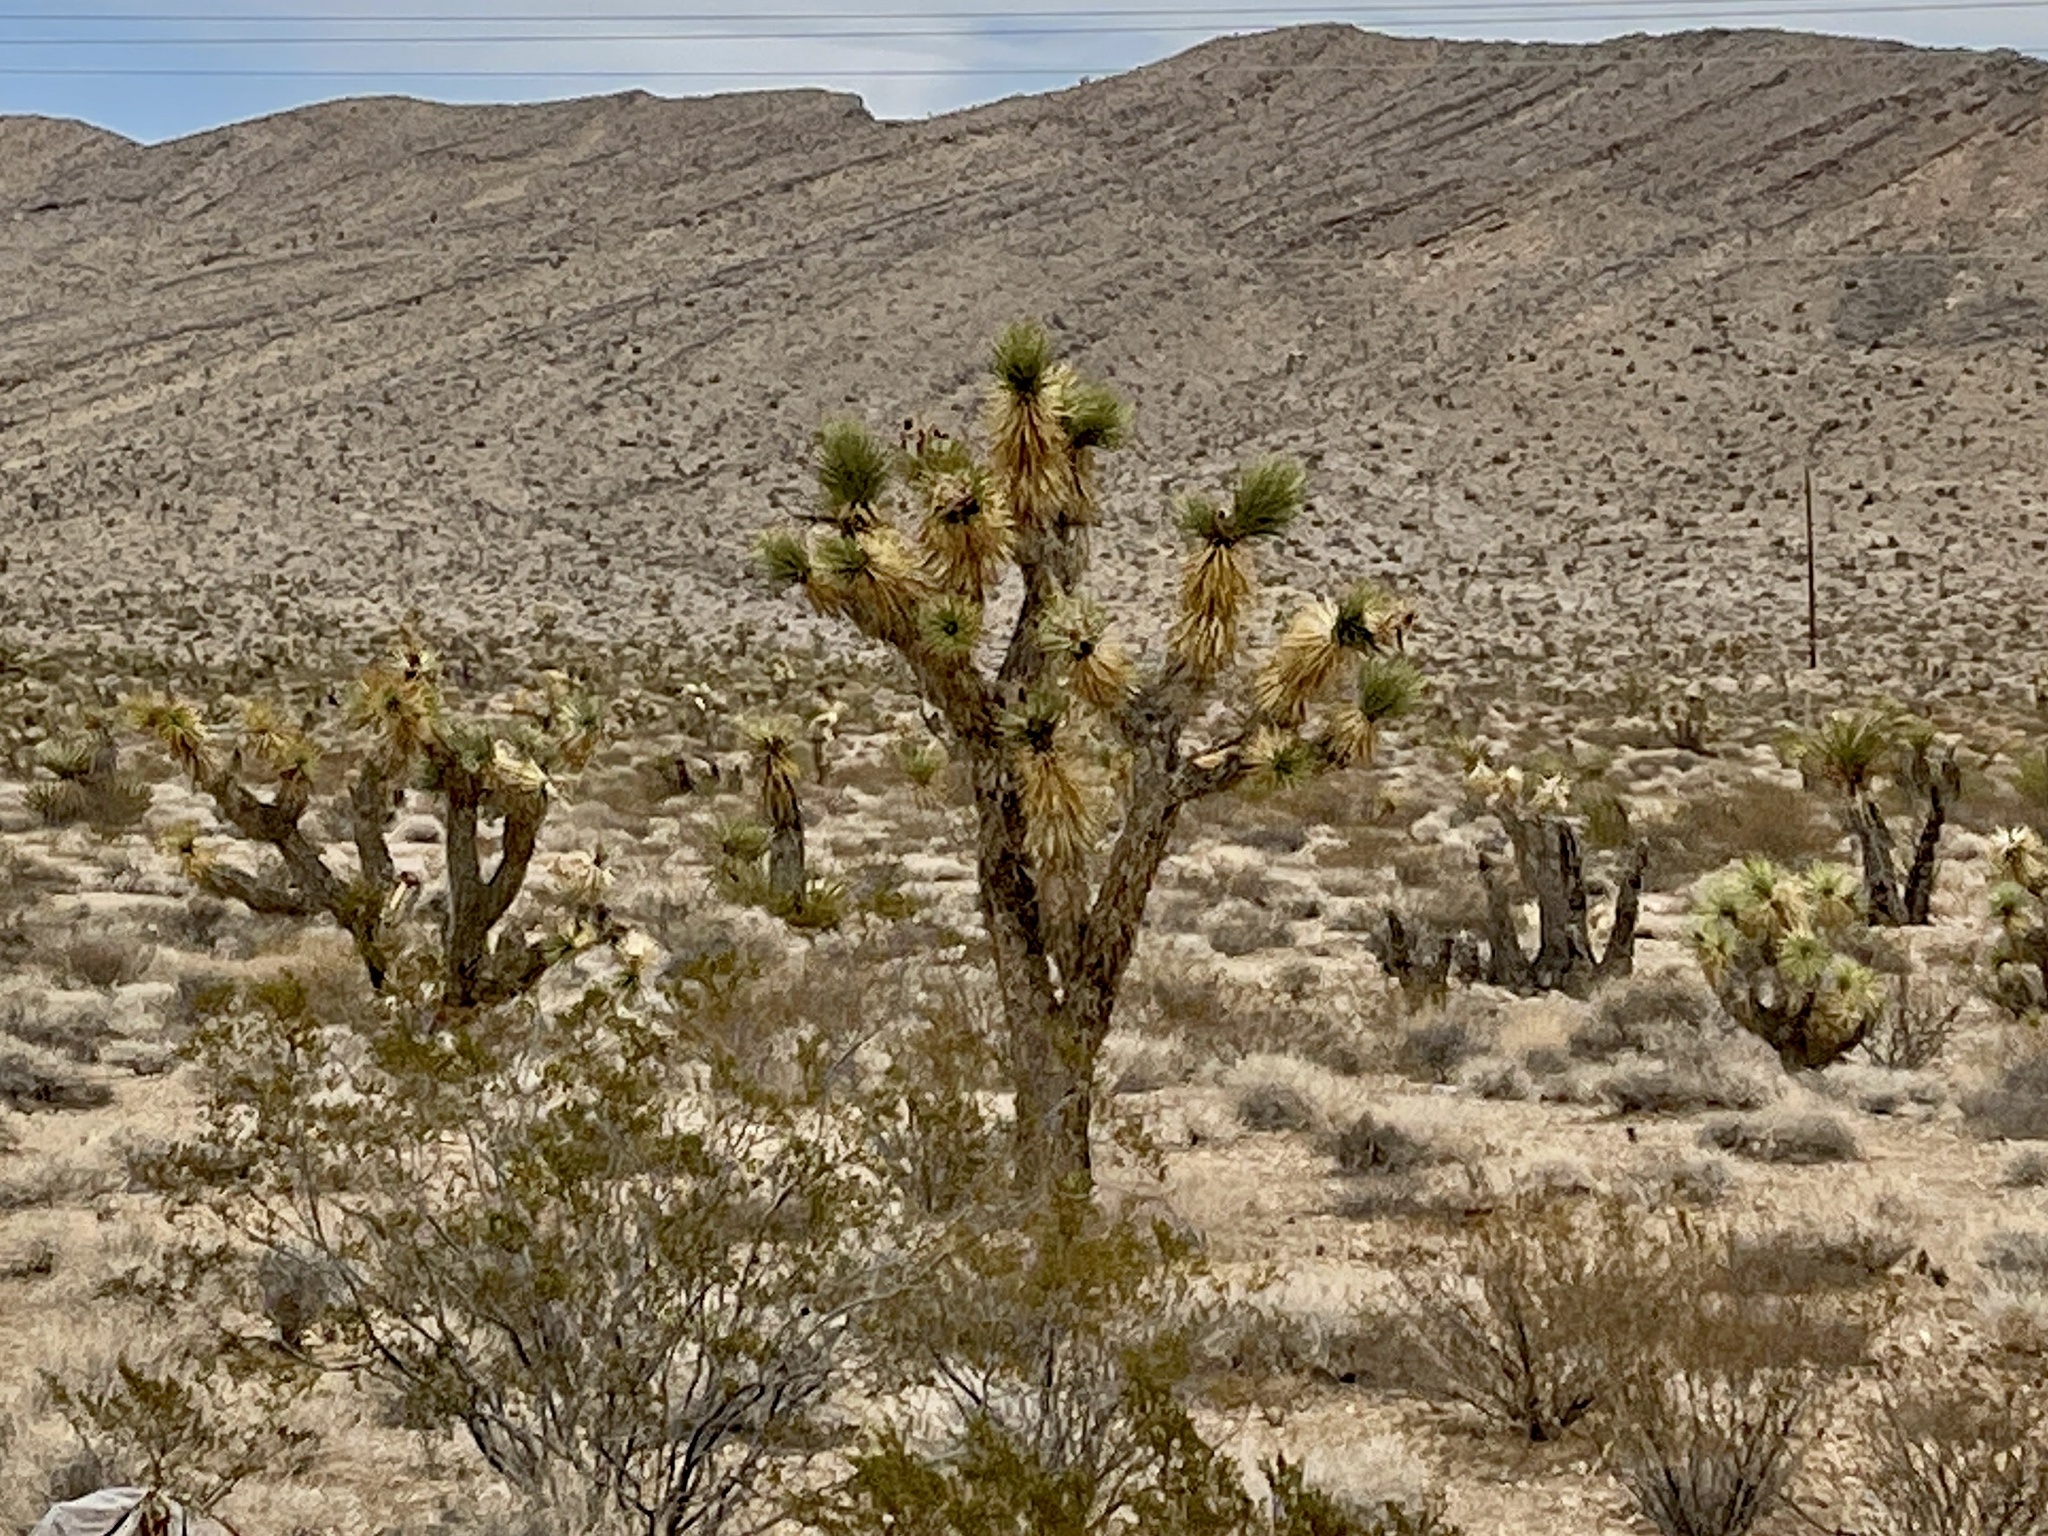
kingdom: Plantae
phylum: Tracheophyta
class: Liliopsida
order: Asparagales
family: Asparagaceae
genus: Yucca
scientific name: Yucca brevifolia
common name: Joshua tree
